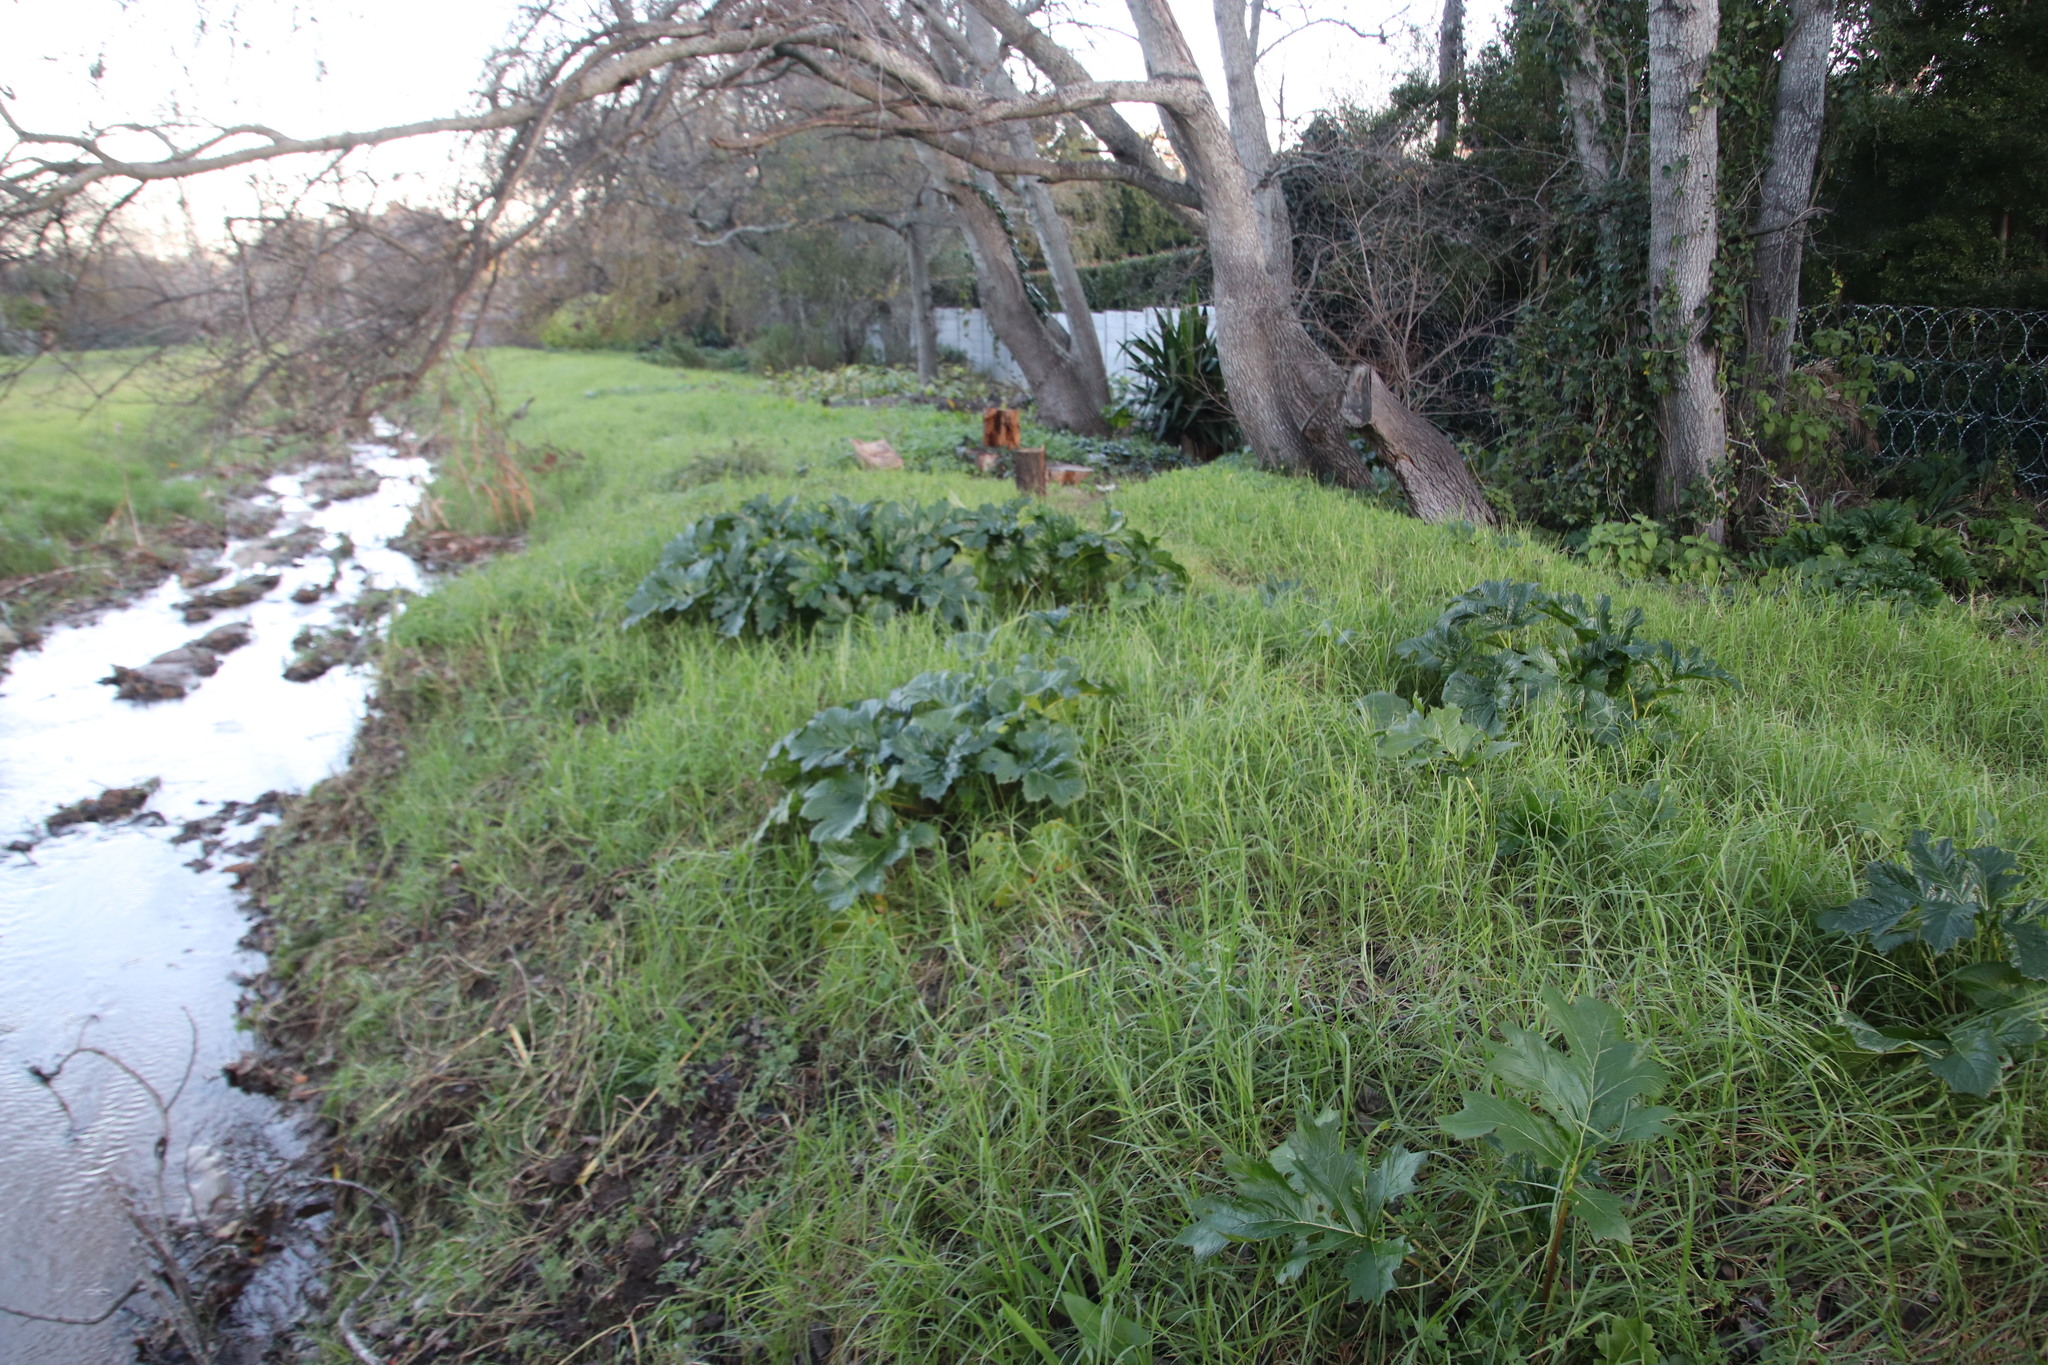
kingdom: Plantae
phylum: Tracheophyta
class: Magnoliopsida
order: Lamiales
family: Acanthaceae
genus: Acanthus
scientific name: Acanthus mollis
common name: Bear's-breech
